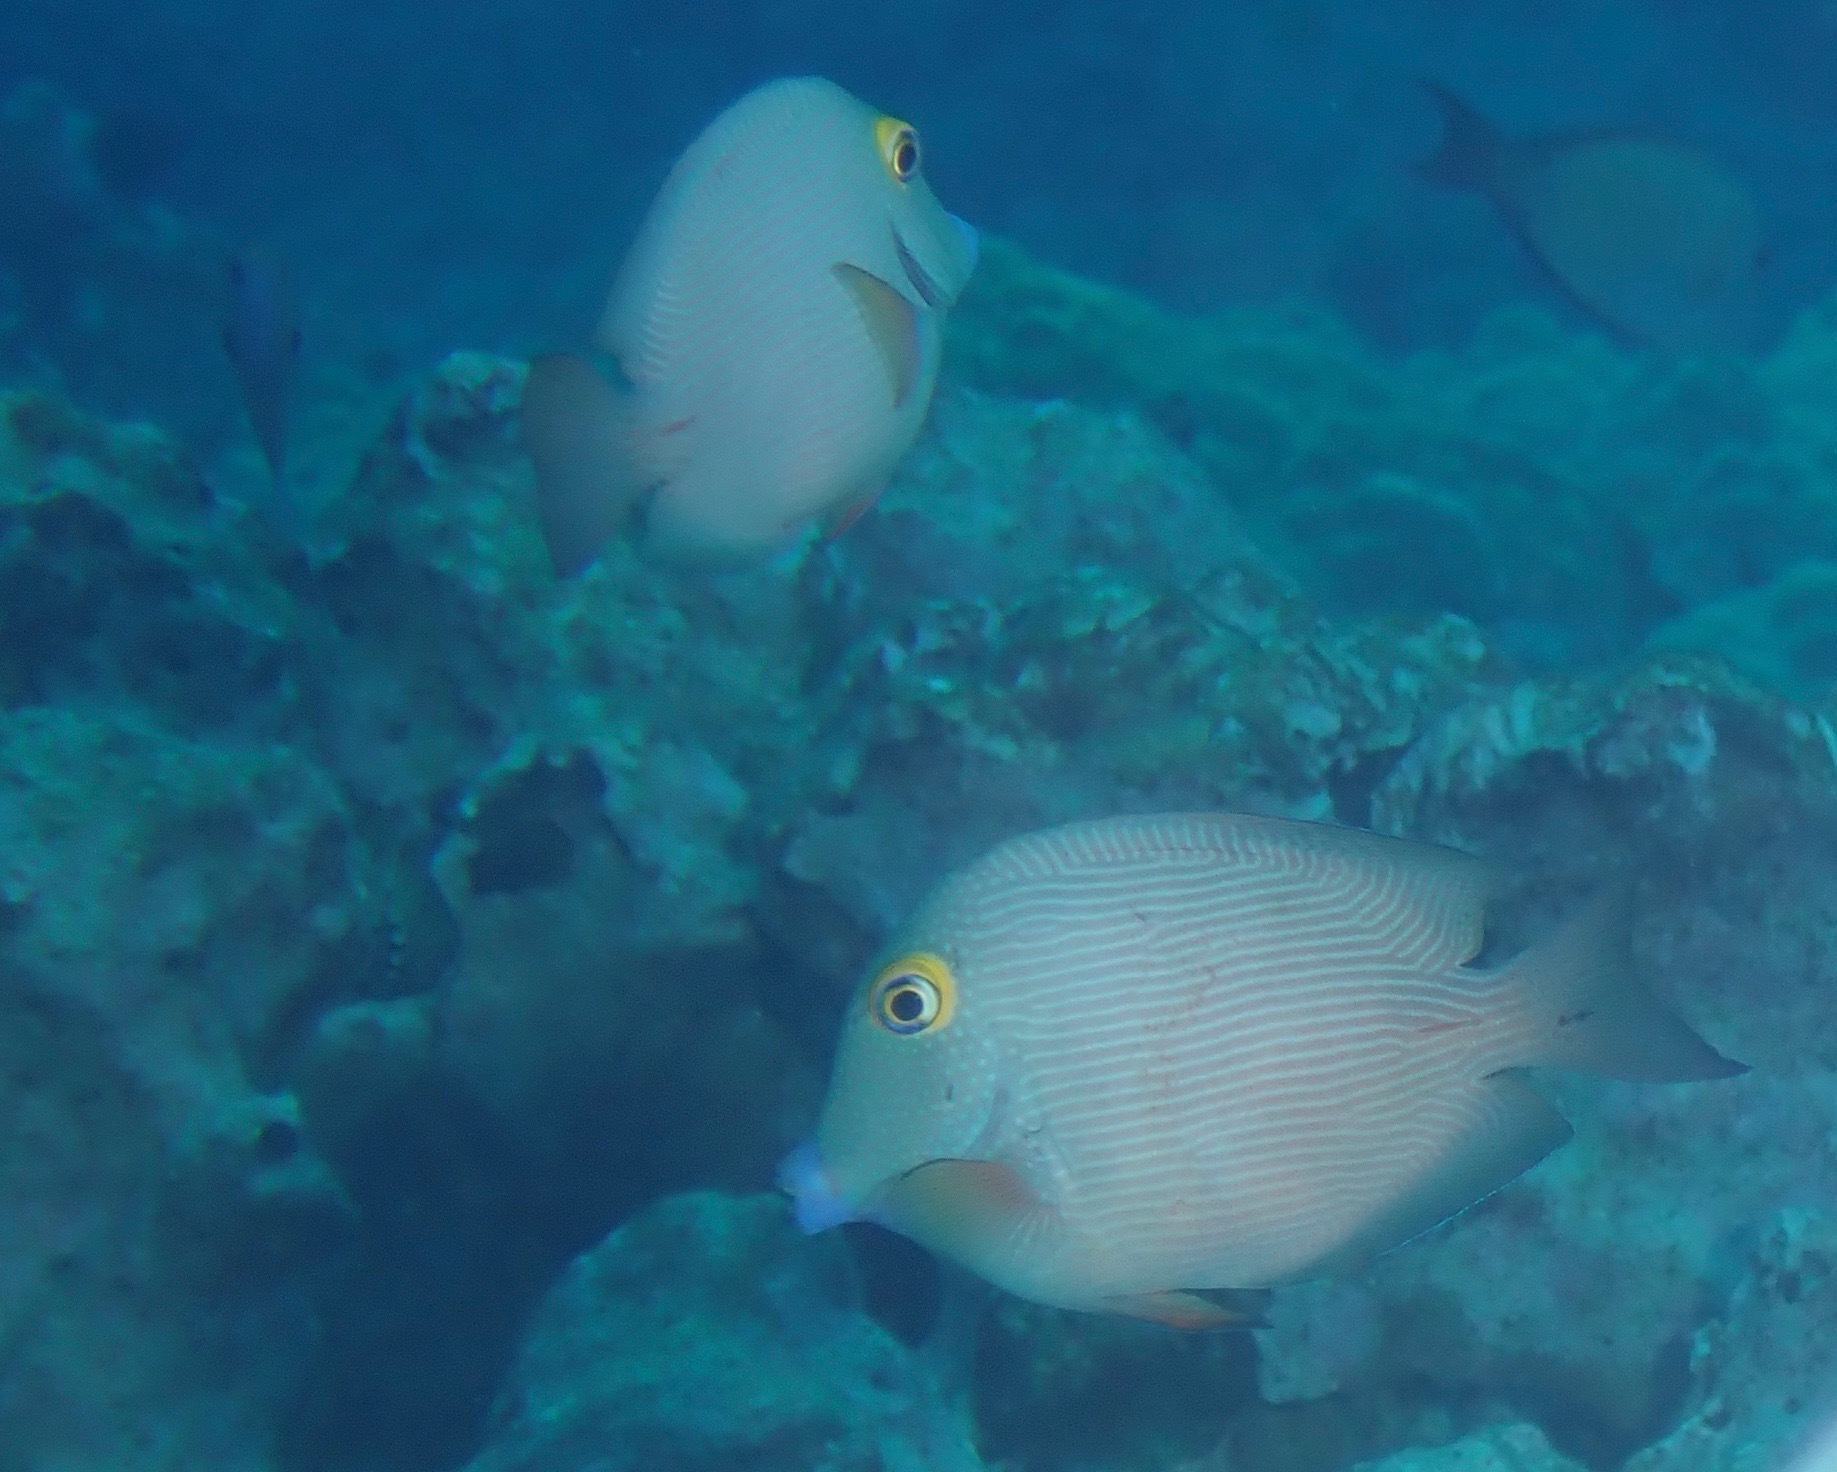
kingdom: Animalia
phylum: Chordata
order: Perciformes
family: Acanthuridae
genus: Ctenochaetus
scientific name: Ctenochaetus strigosus
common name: Bristletoothed surgeonfish
